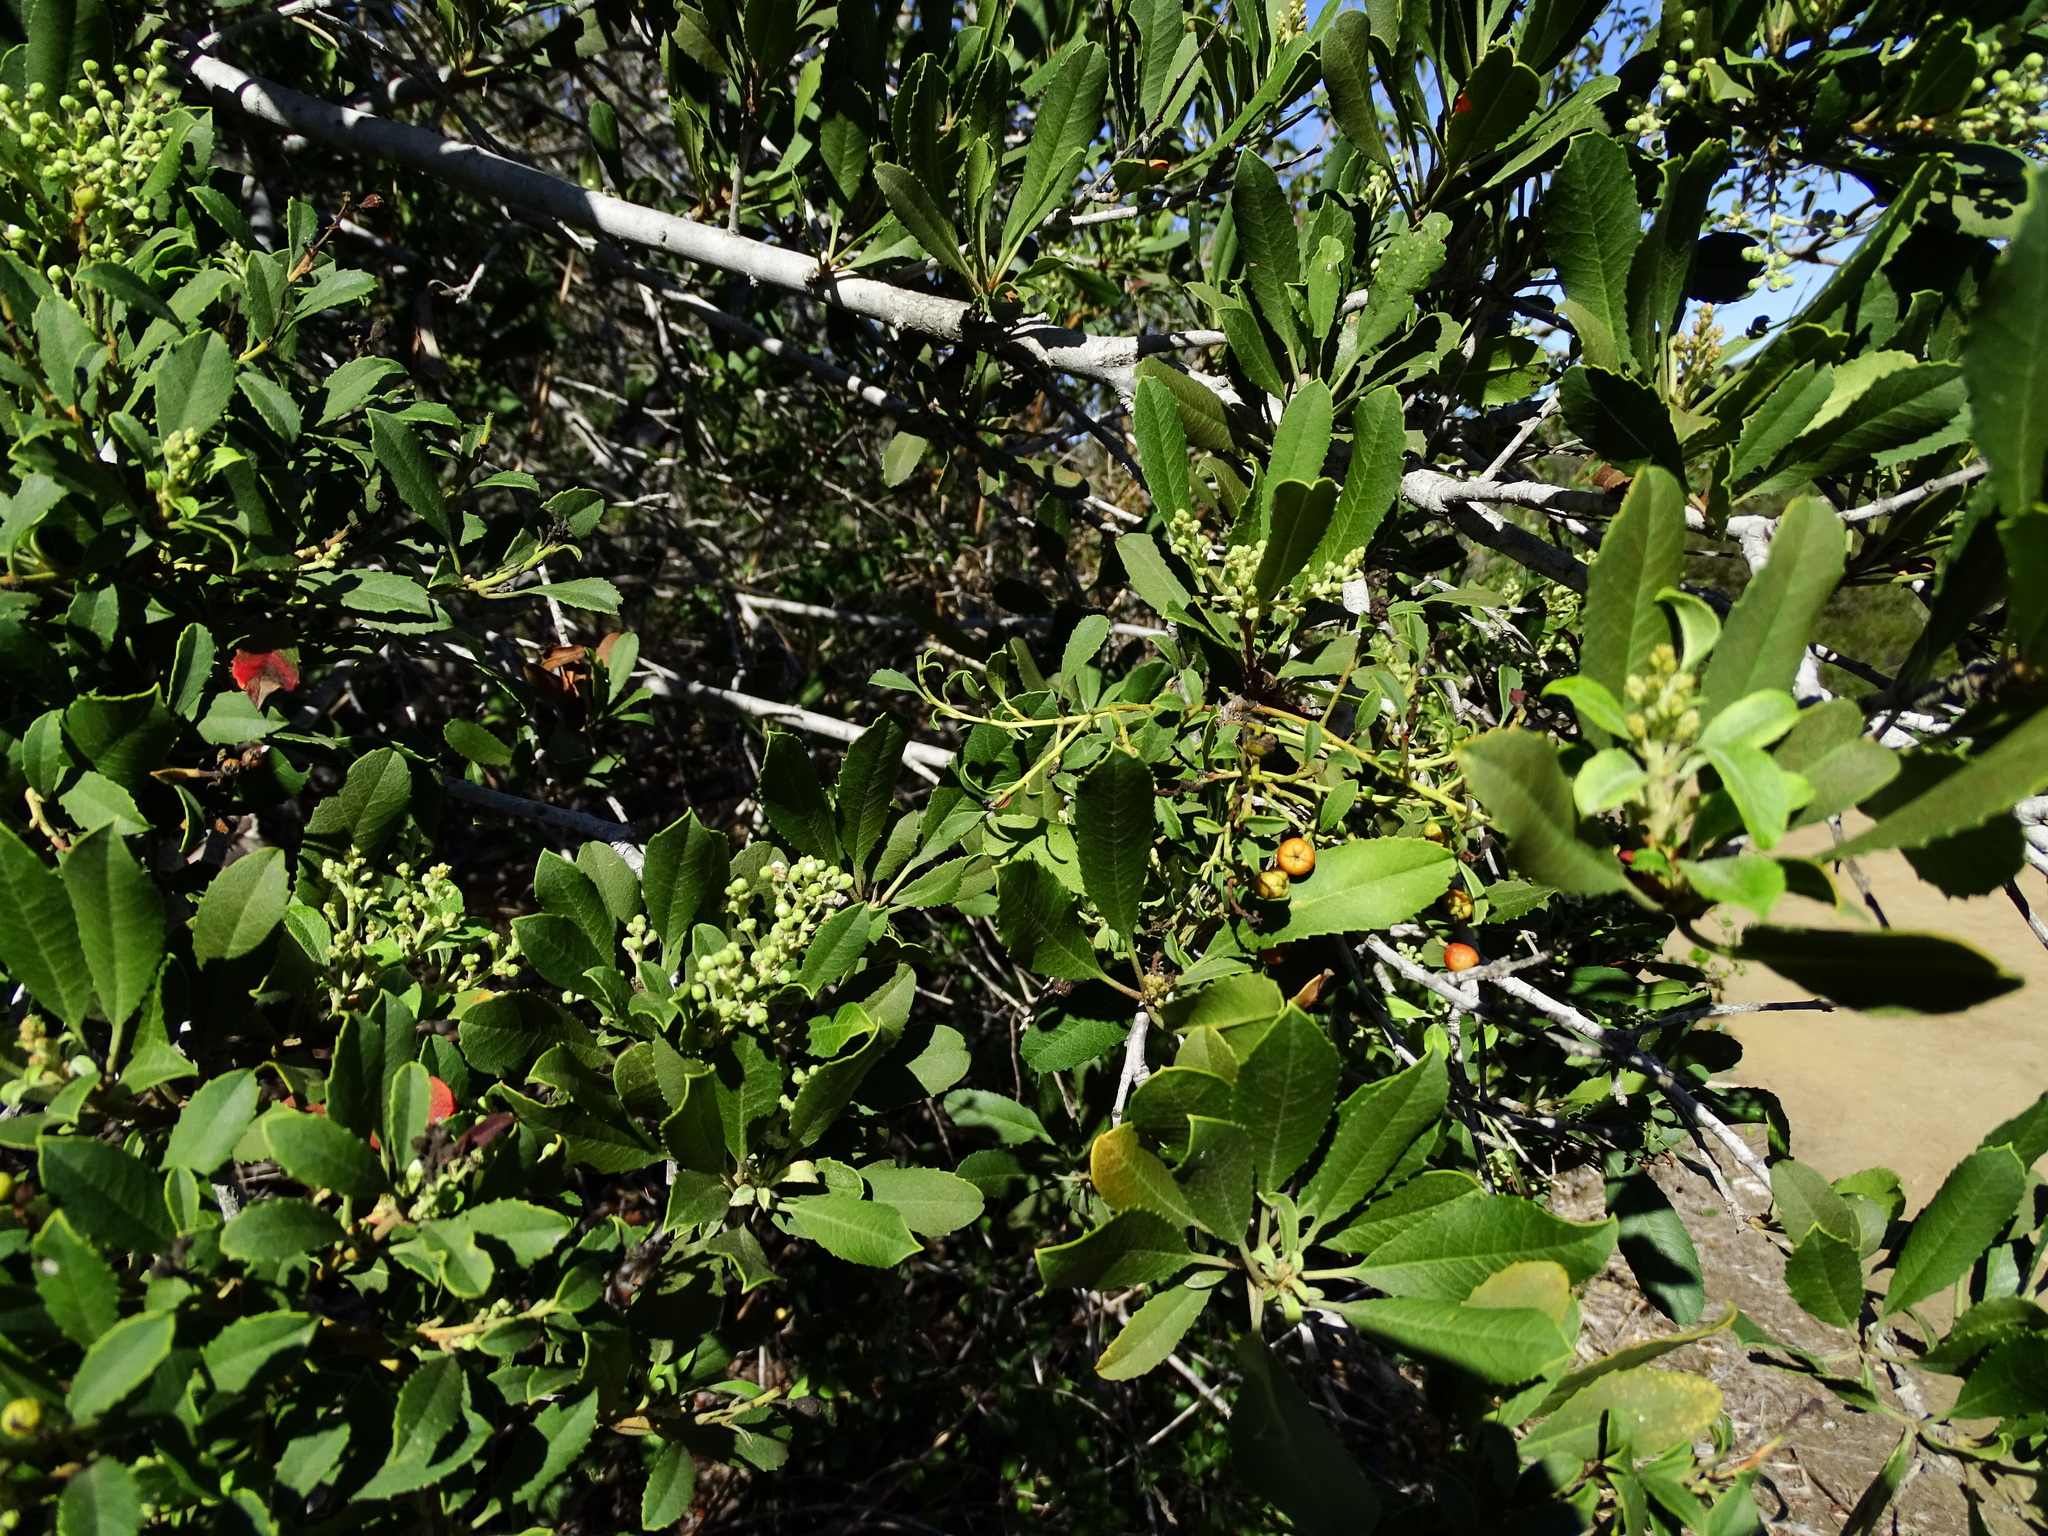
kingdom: Plantae
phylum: Tracheophyta
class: Magnoliopsida
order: Rosales
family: Rosaceae
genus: Heteromeles
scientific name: Heteromeles arbutifolia
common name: California-holly
